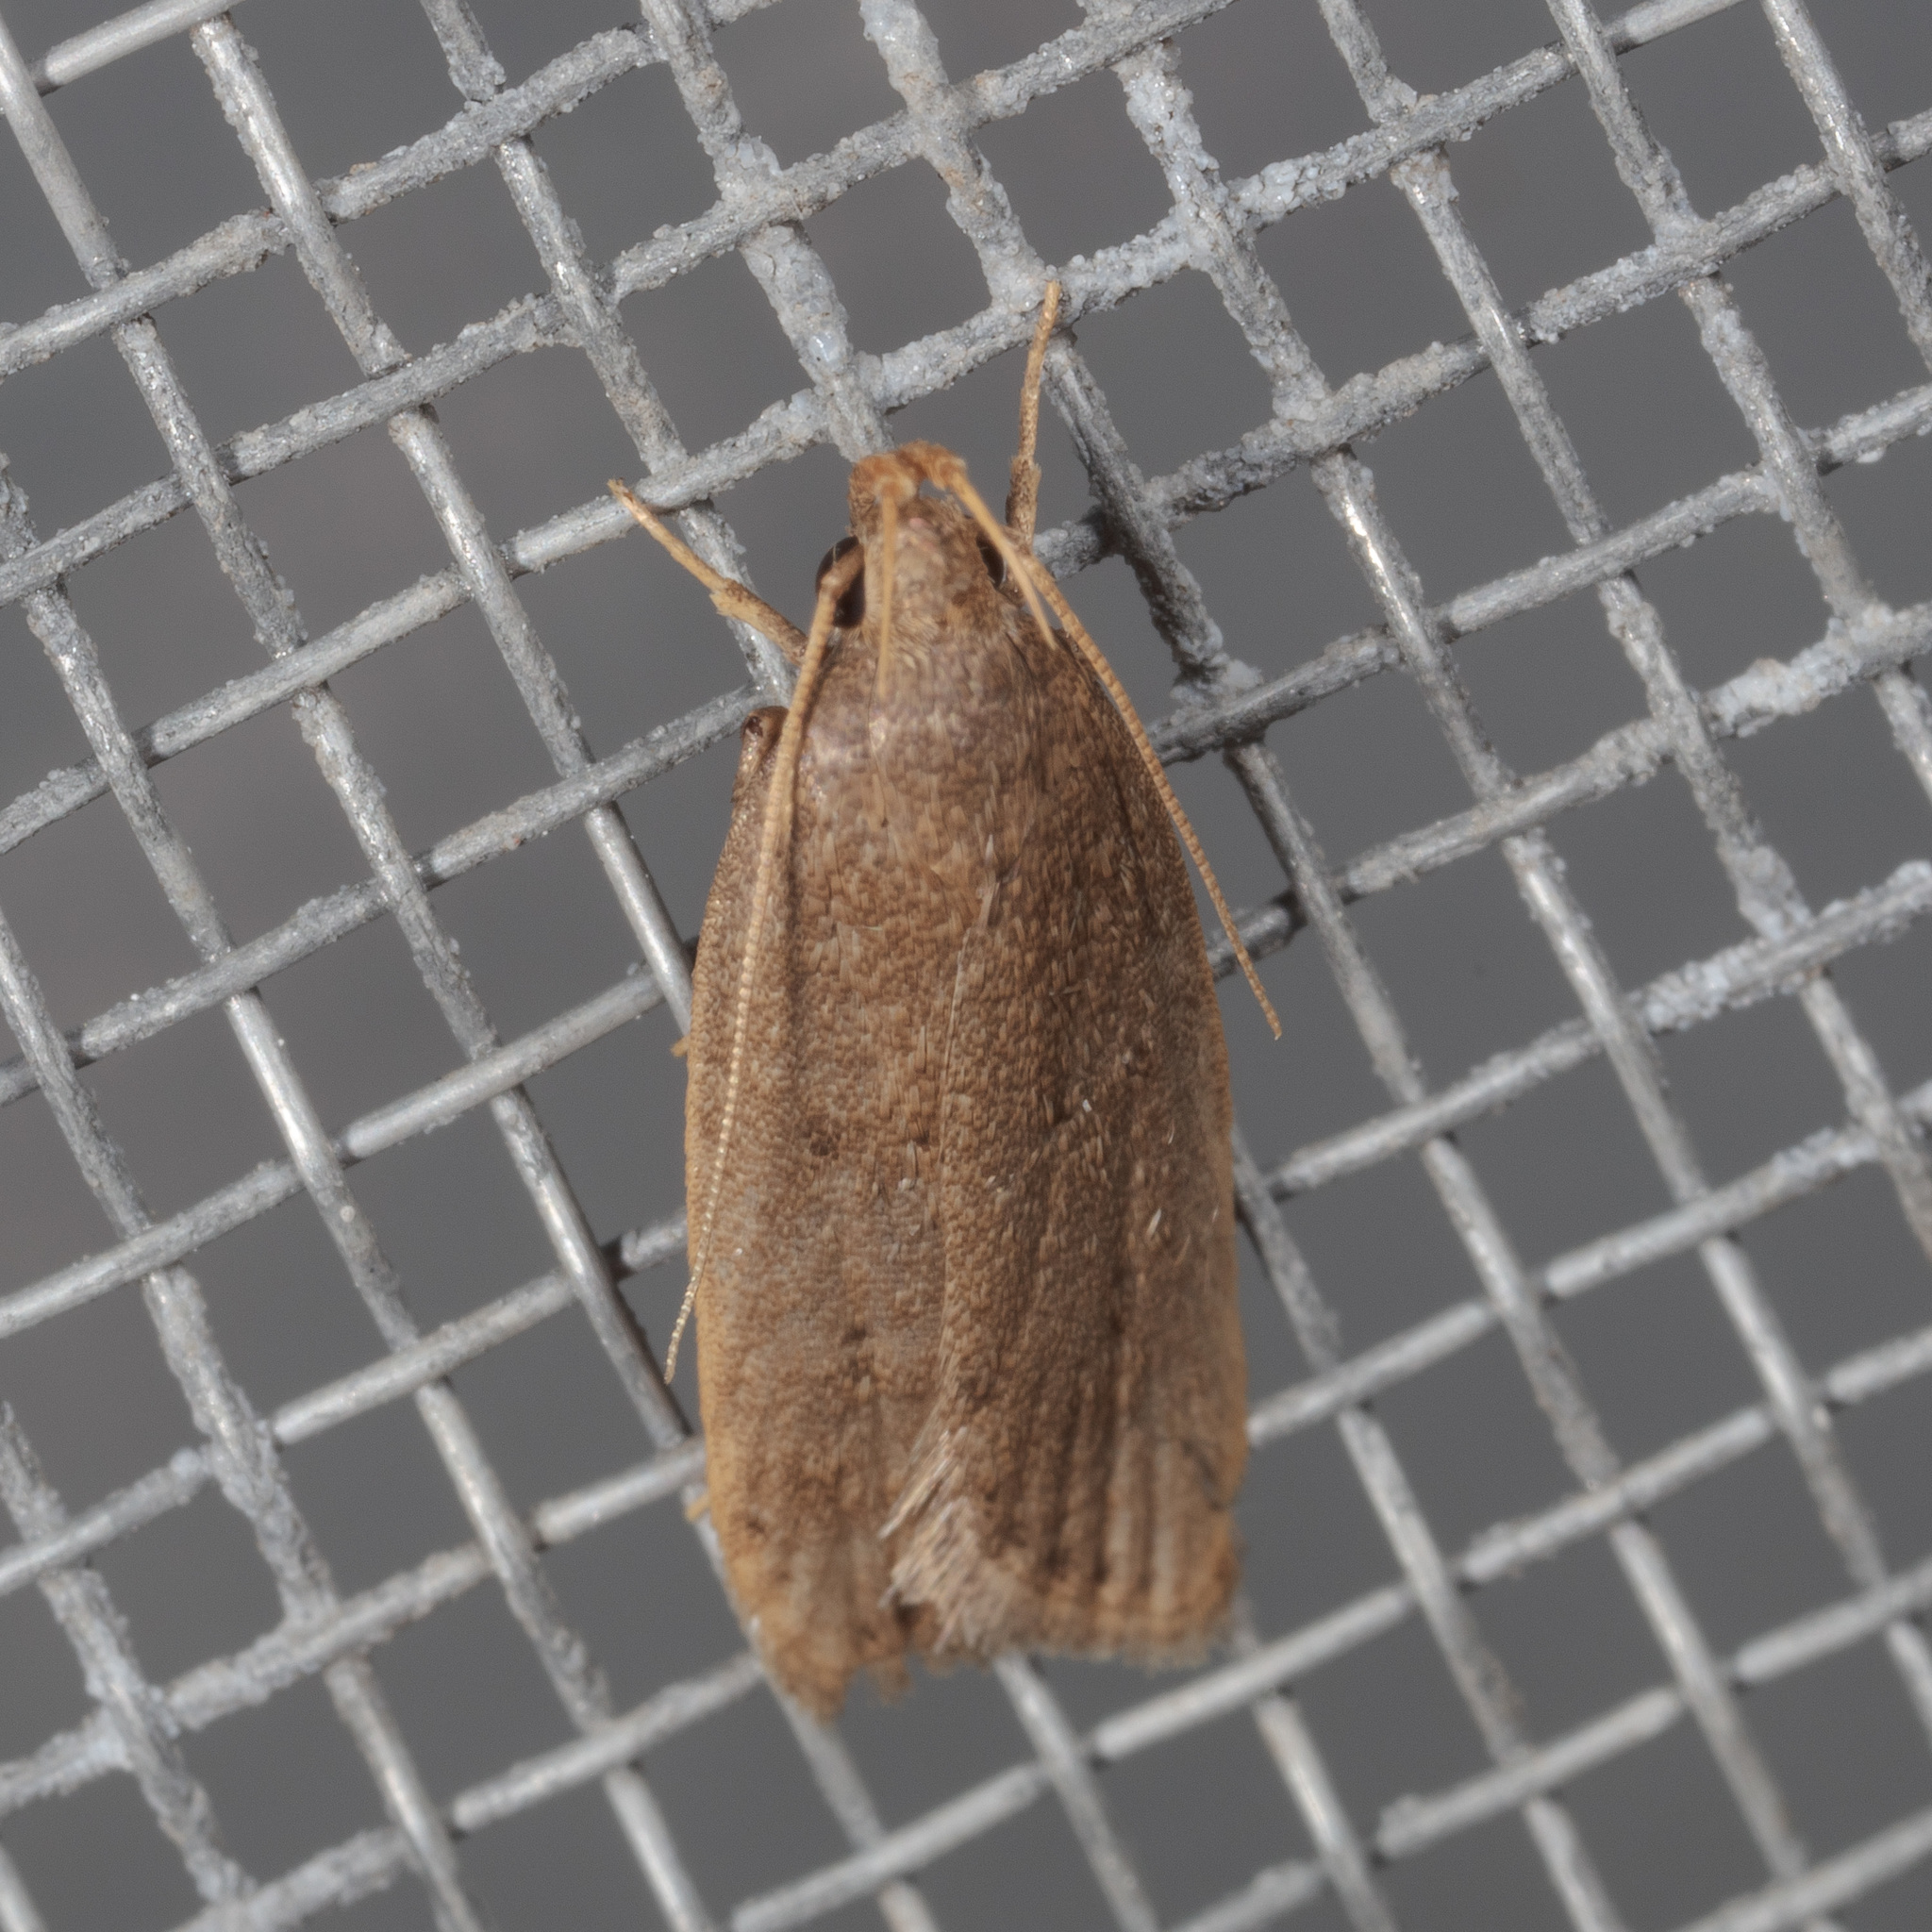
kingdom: Animalia
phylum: Arthropoda
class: Insecta
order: Lepidoptera
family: Autostichidae
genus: Autosticha
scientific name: Autosticha kyotensis
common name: Kyoto moth
